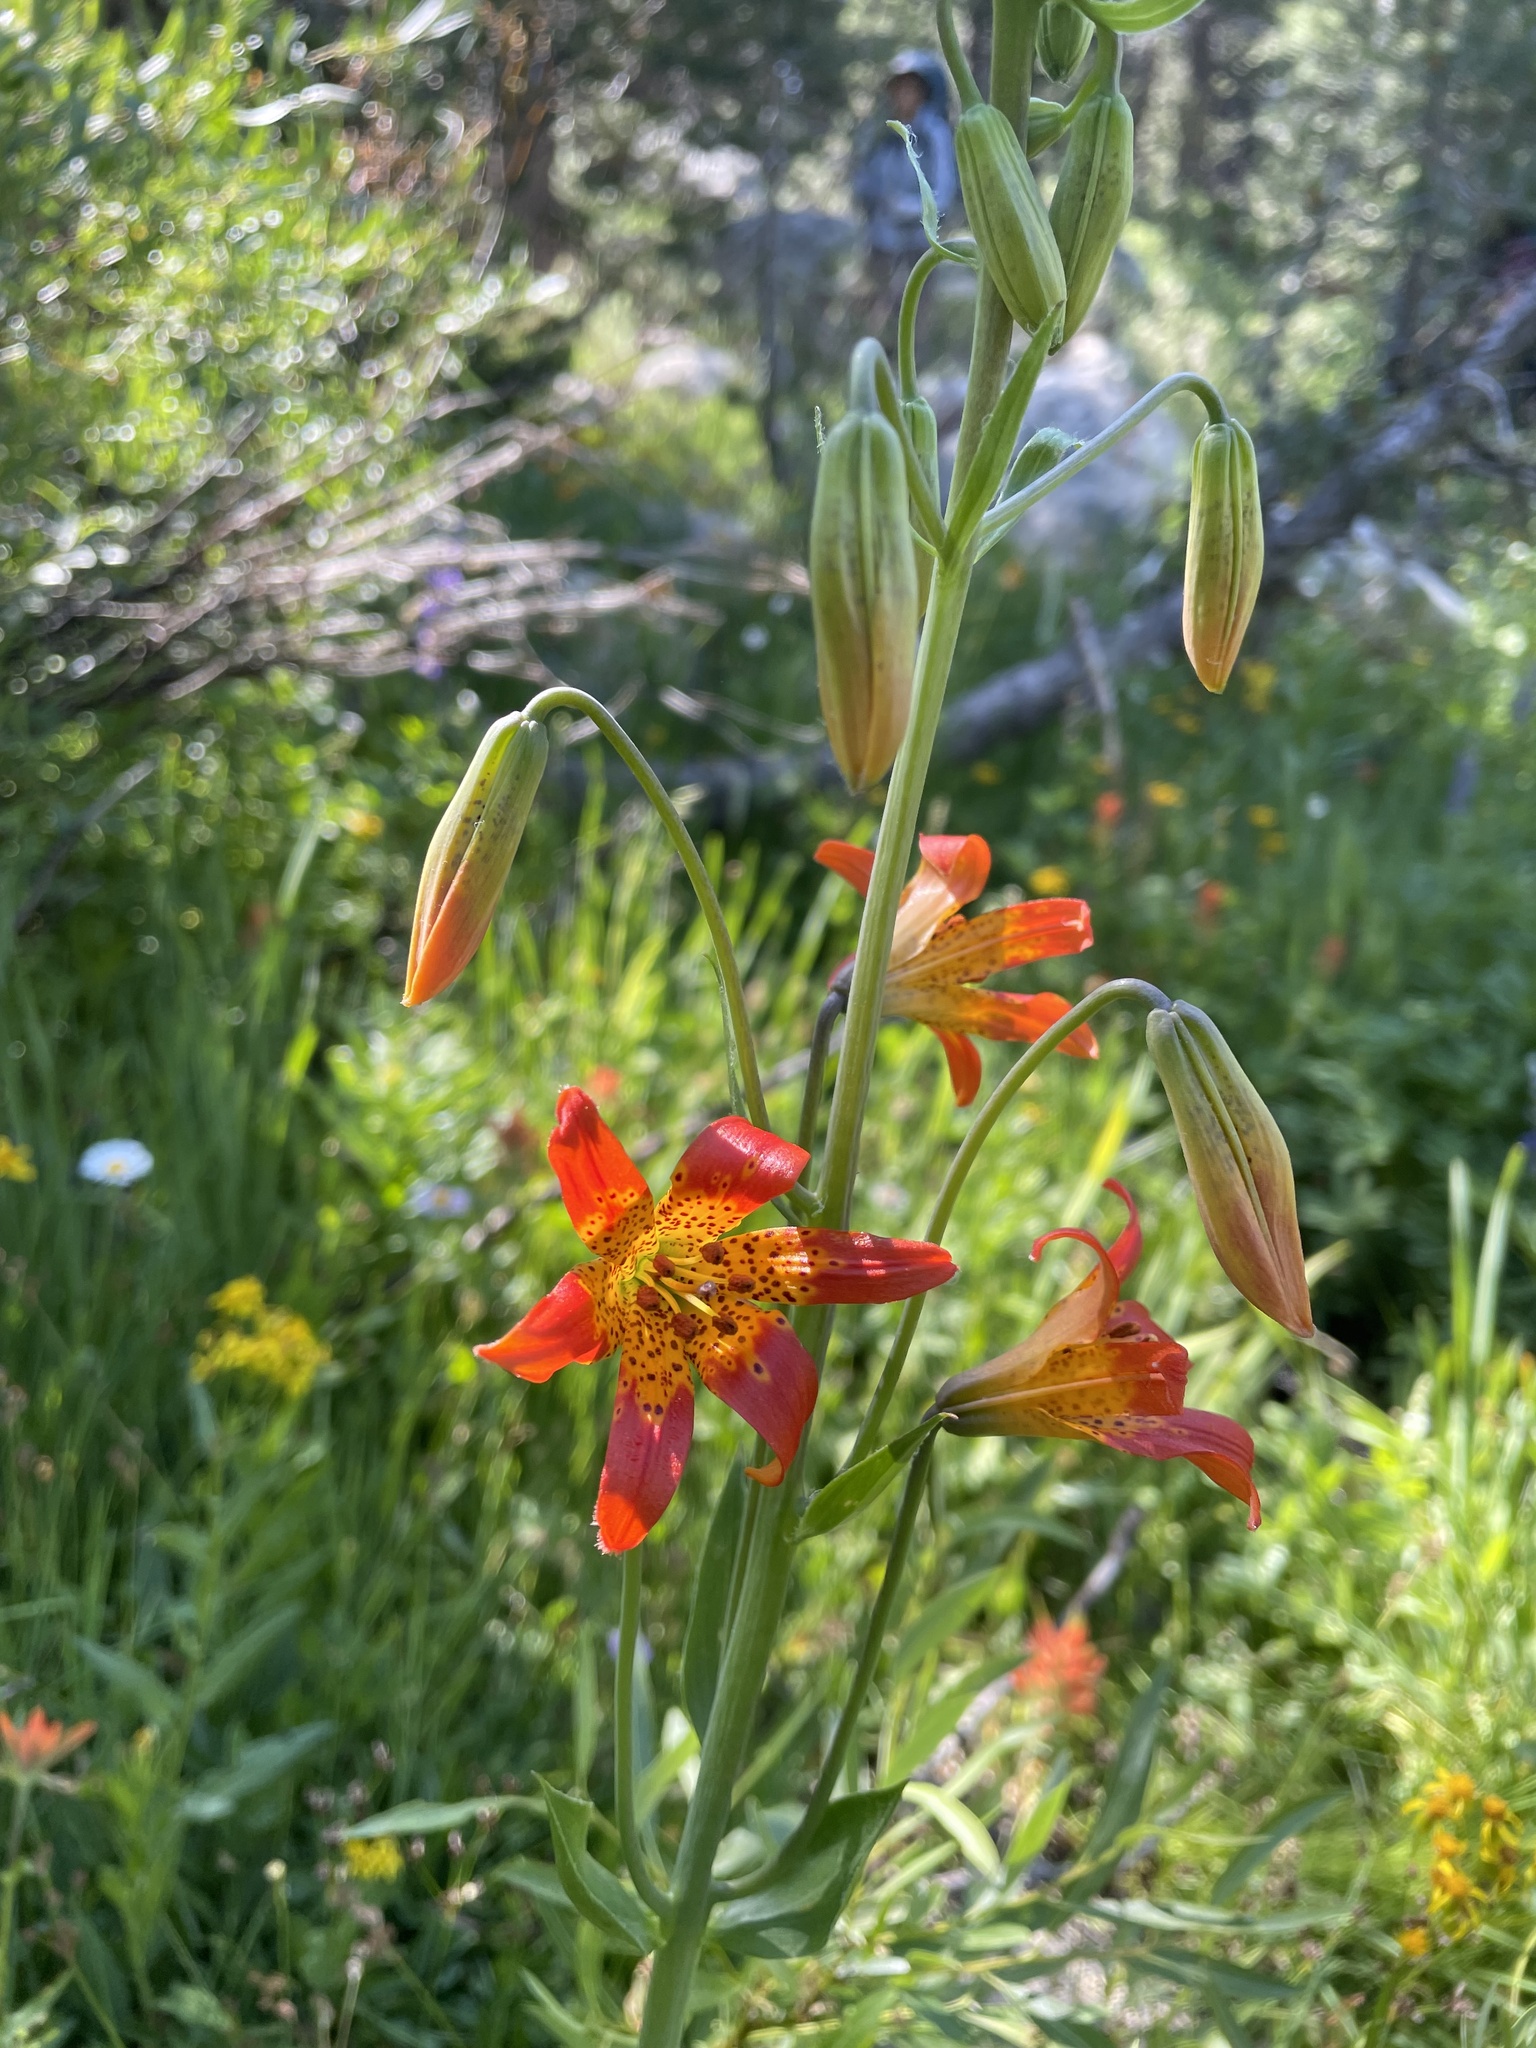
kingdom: Plantae
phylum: Tracheophyta
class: Liliopsida
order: Liliales
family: Liliaceae
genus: Lilium
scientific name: Lilium parvum
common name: Alpine lily
